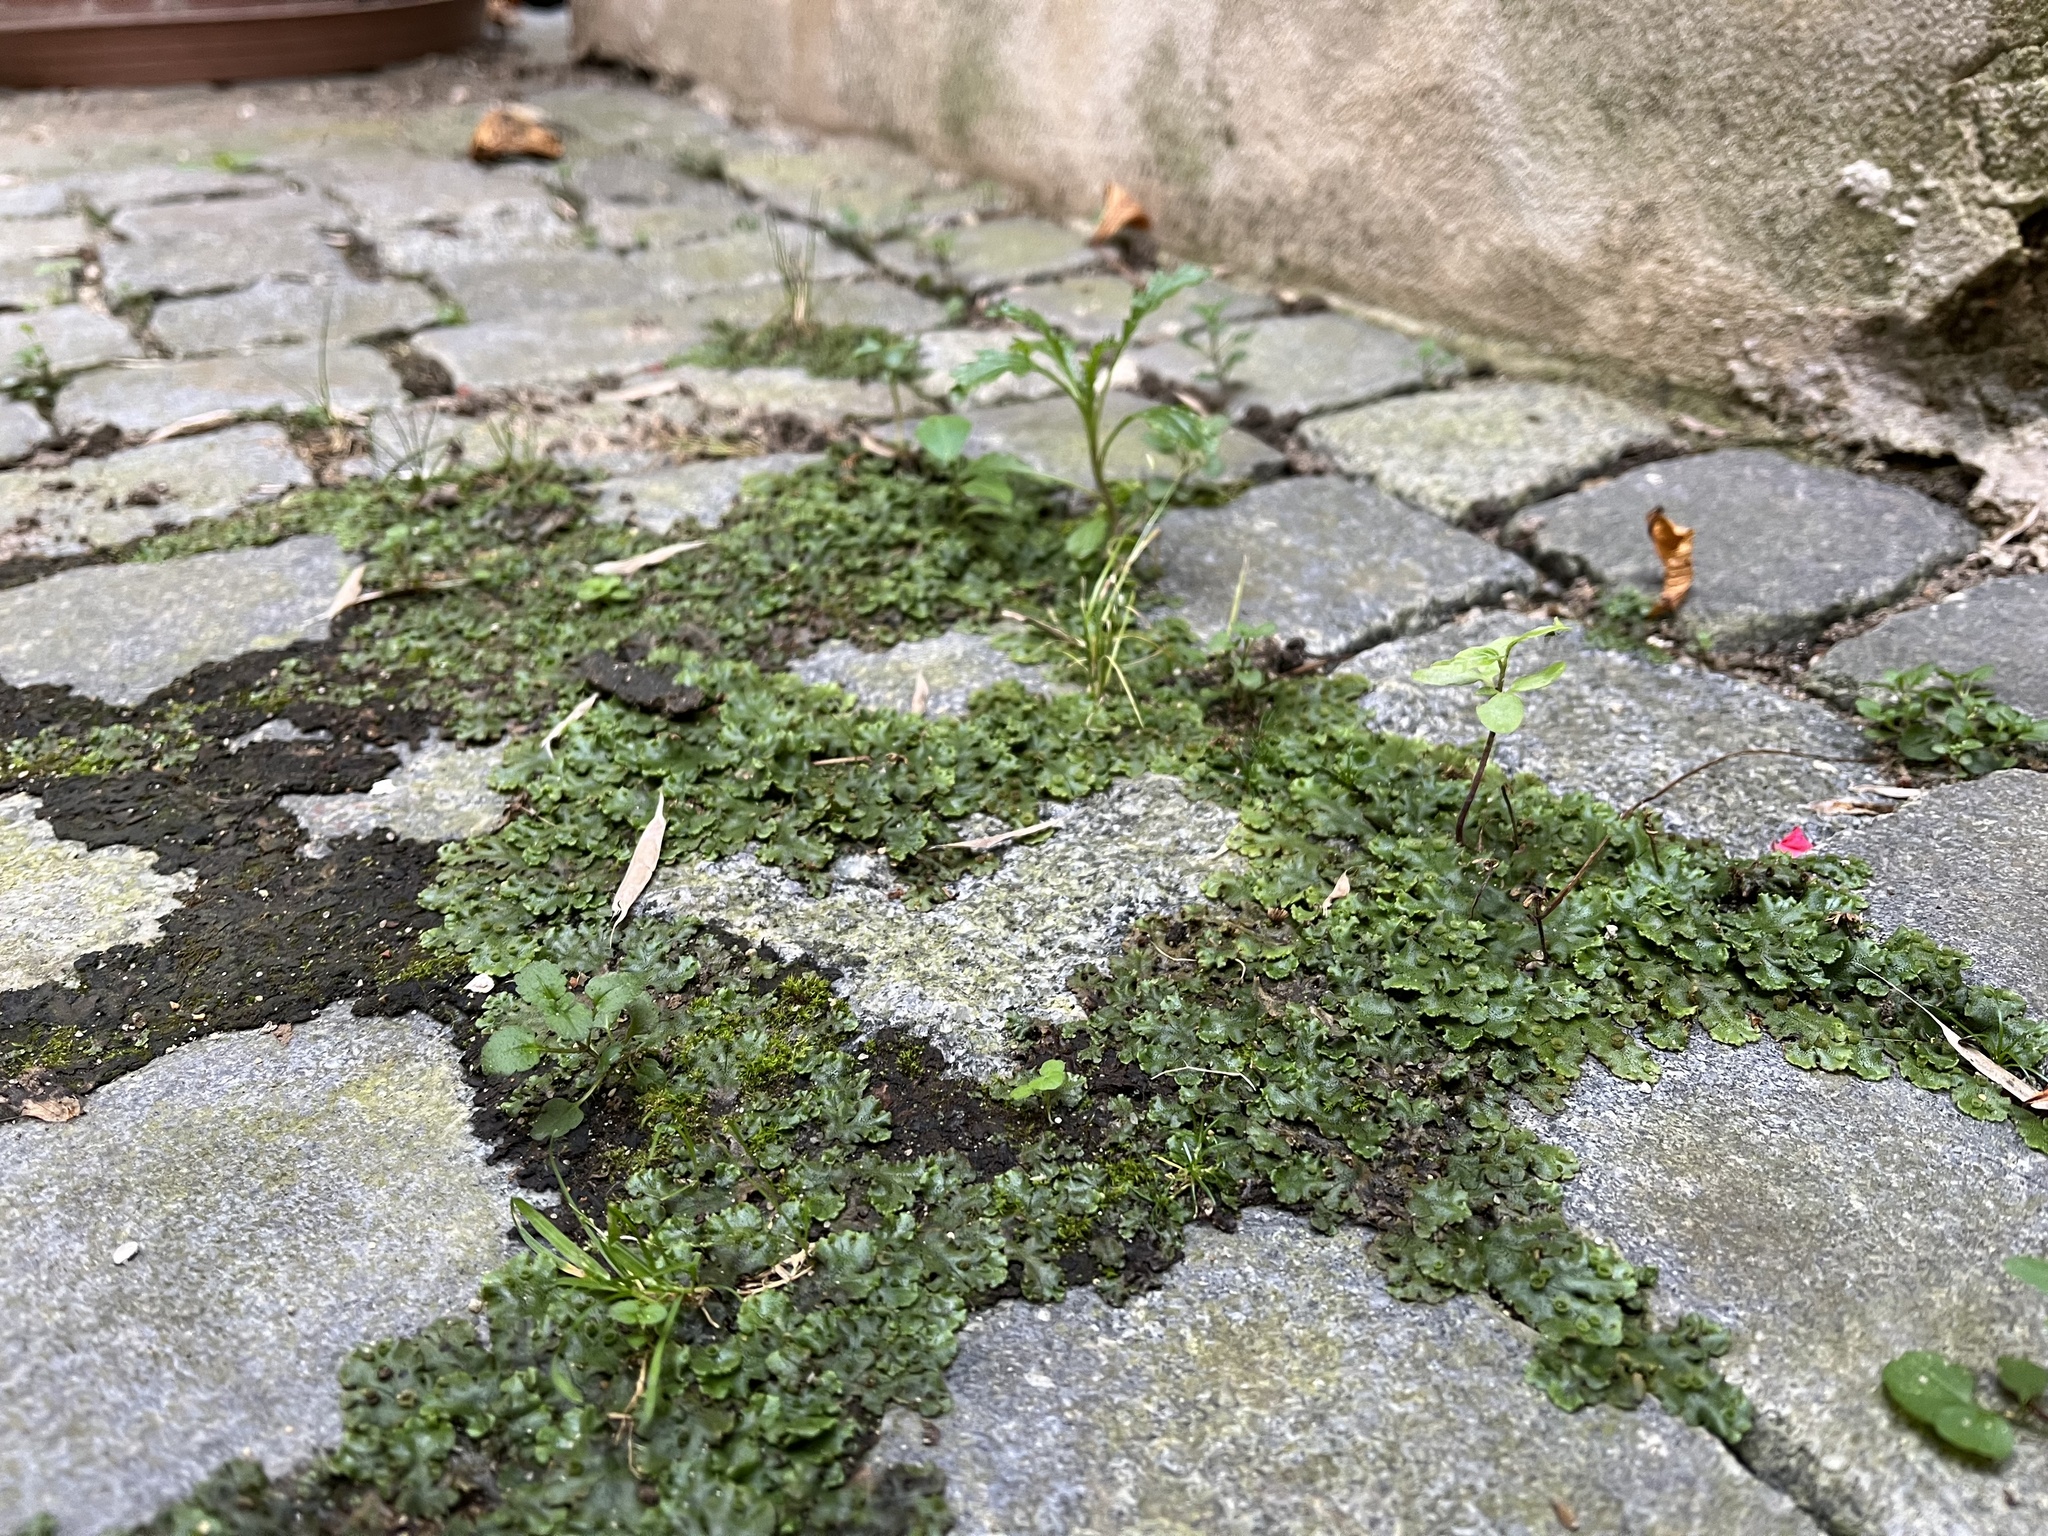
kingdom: Plantae
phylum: Marchantiophyta
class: Marchantiopsida
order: Marchantiales
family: Marchantiaceae
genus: Marchantia
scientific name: Marchantia polymorpha
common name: Common liverwort
